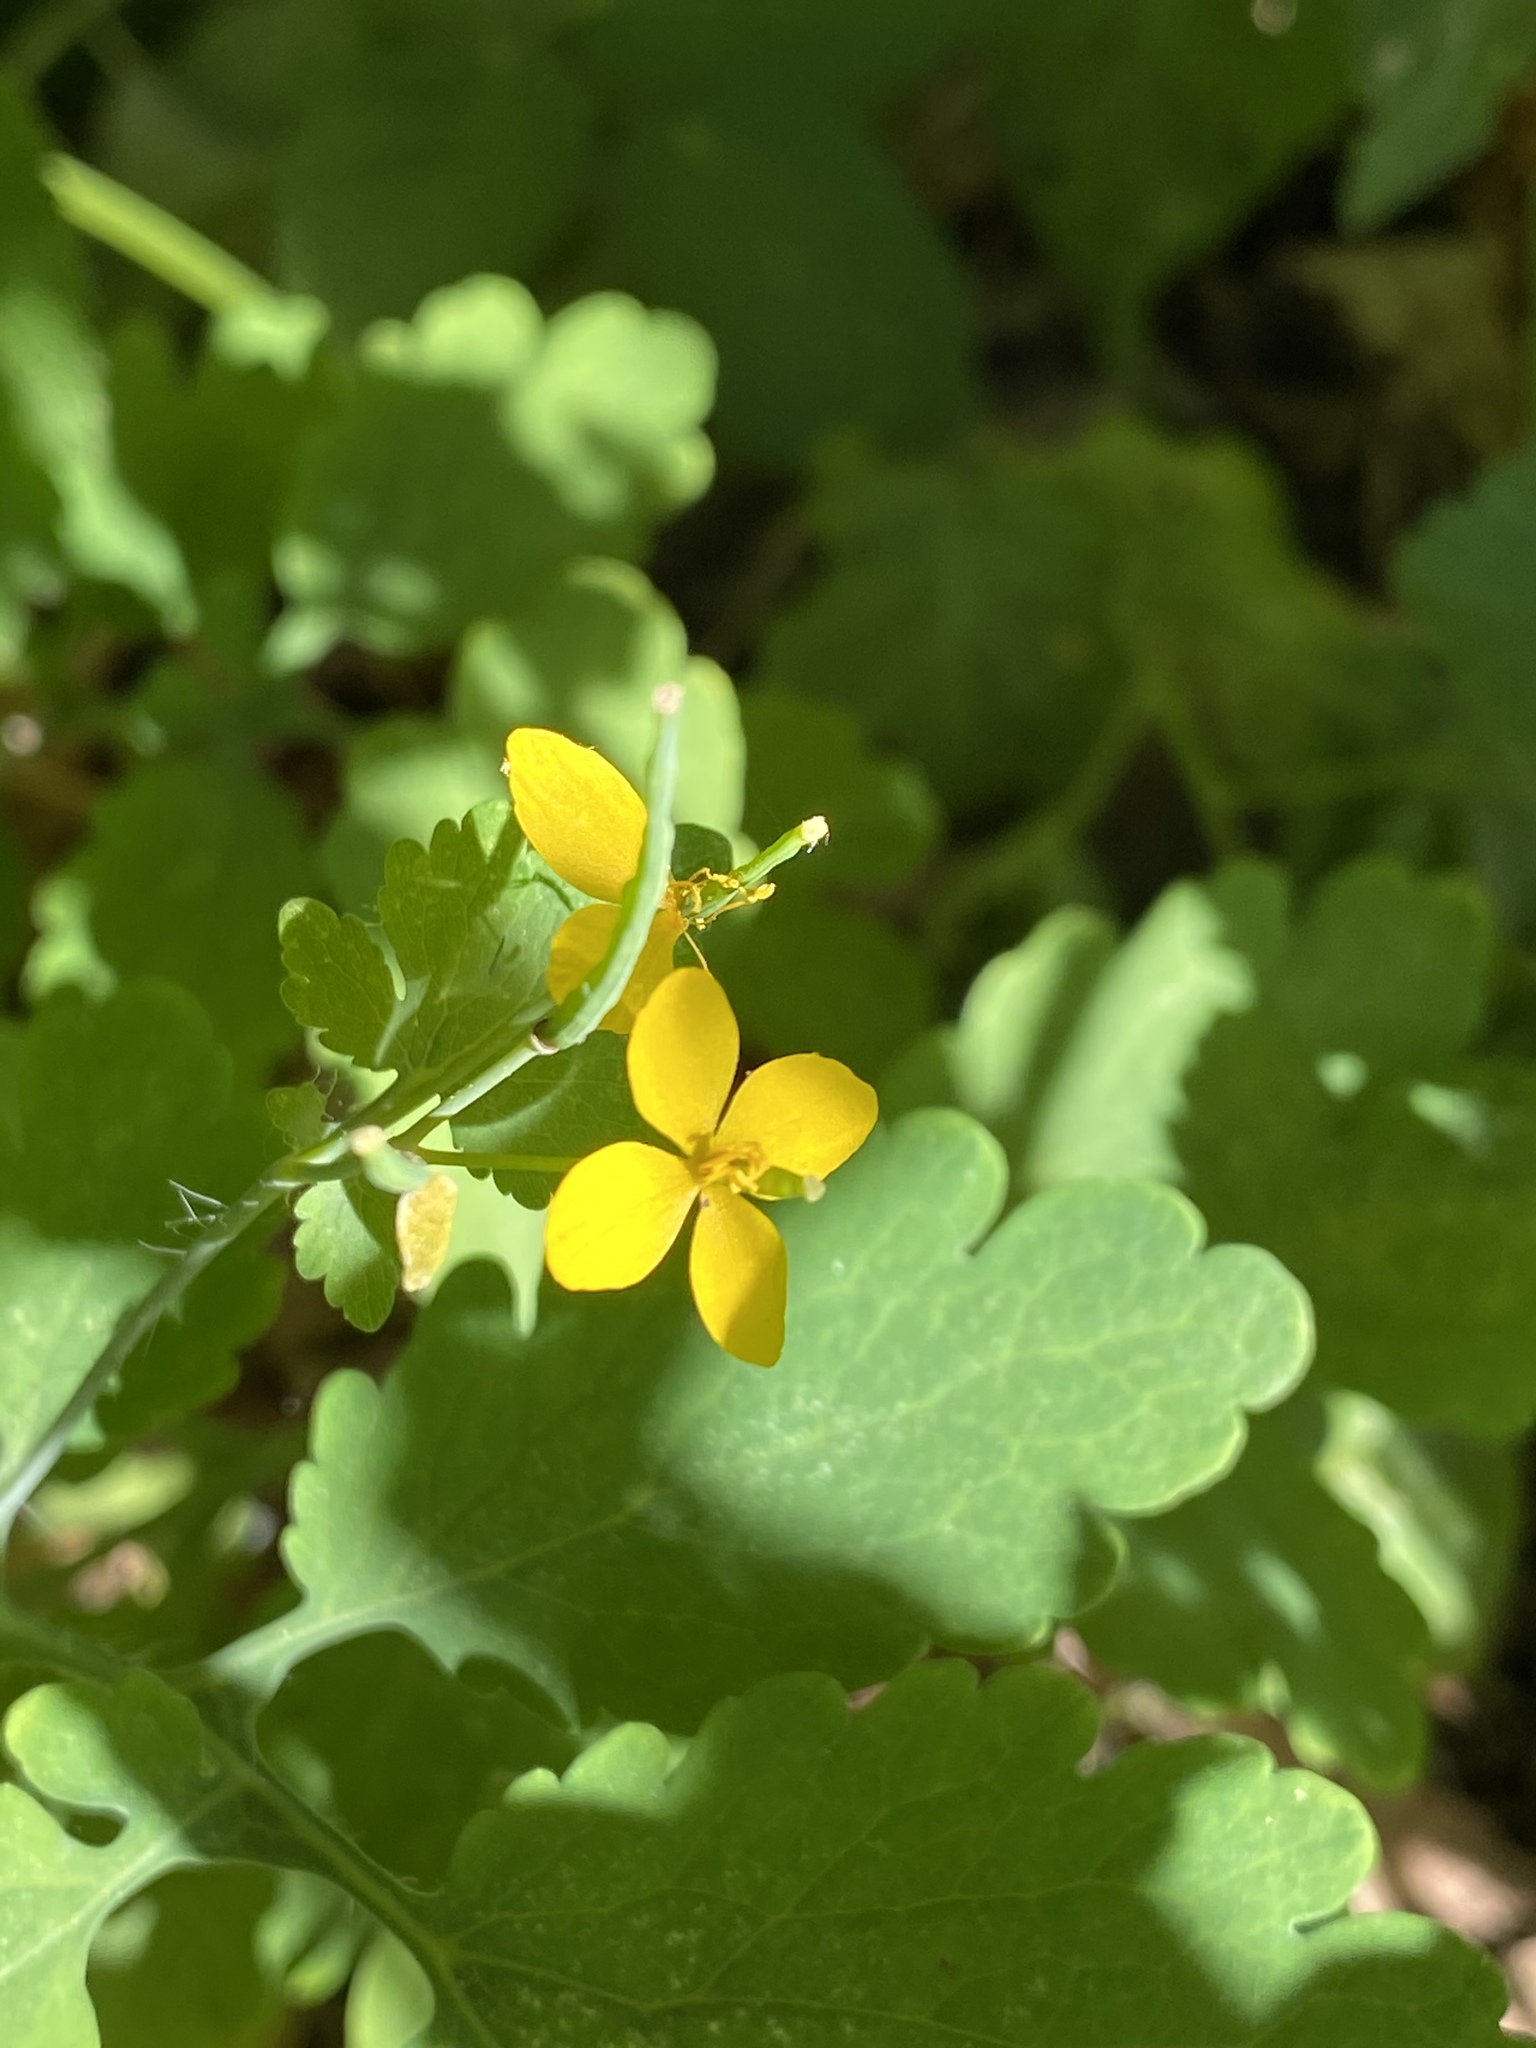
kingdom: Plantae
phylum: Tracheophyta
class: Magnoliopsida
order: Ranunculales
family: Papaveraceae
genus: Chelidonium
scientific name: Chelidonium majus
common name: Greater celandine
